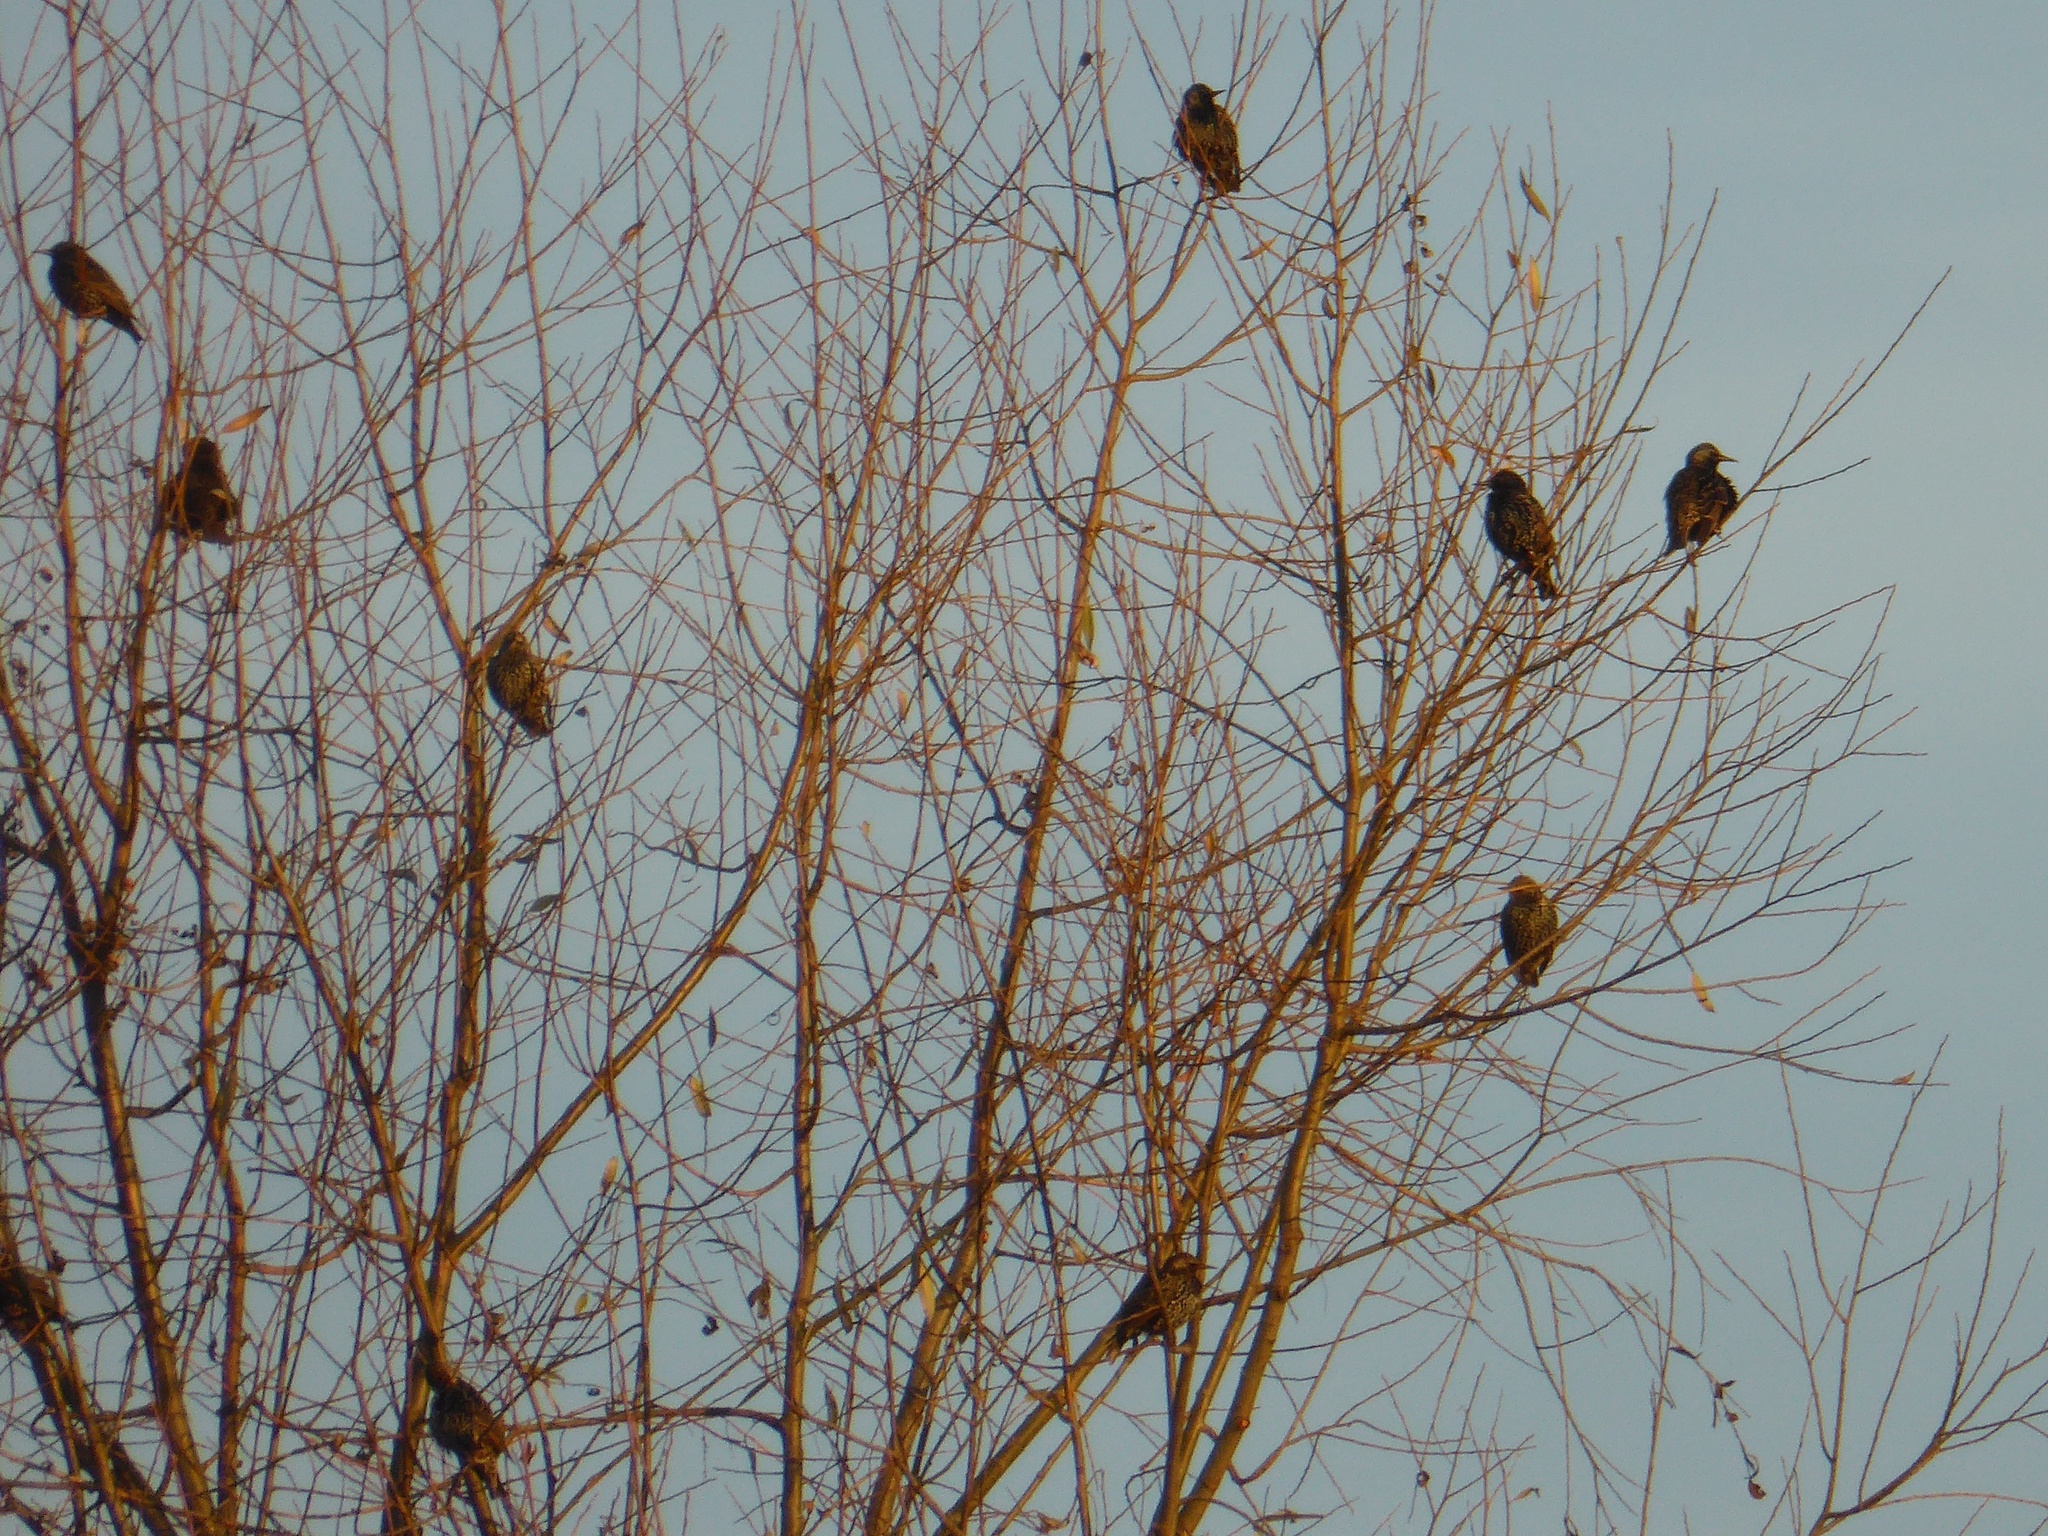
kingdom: Animalia
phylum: Chordata
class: Aves
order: Passeriformes
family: Sturnidae
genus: Sturnus
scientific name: Sturnus vulgaris
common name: Common starling
